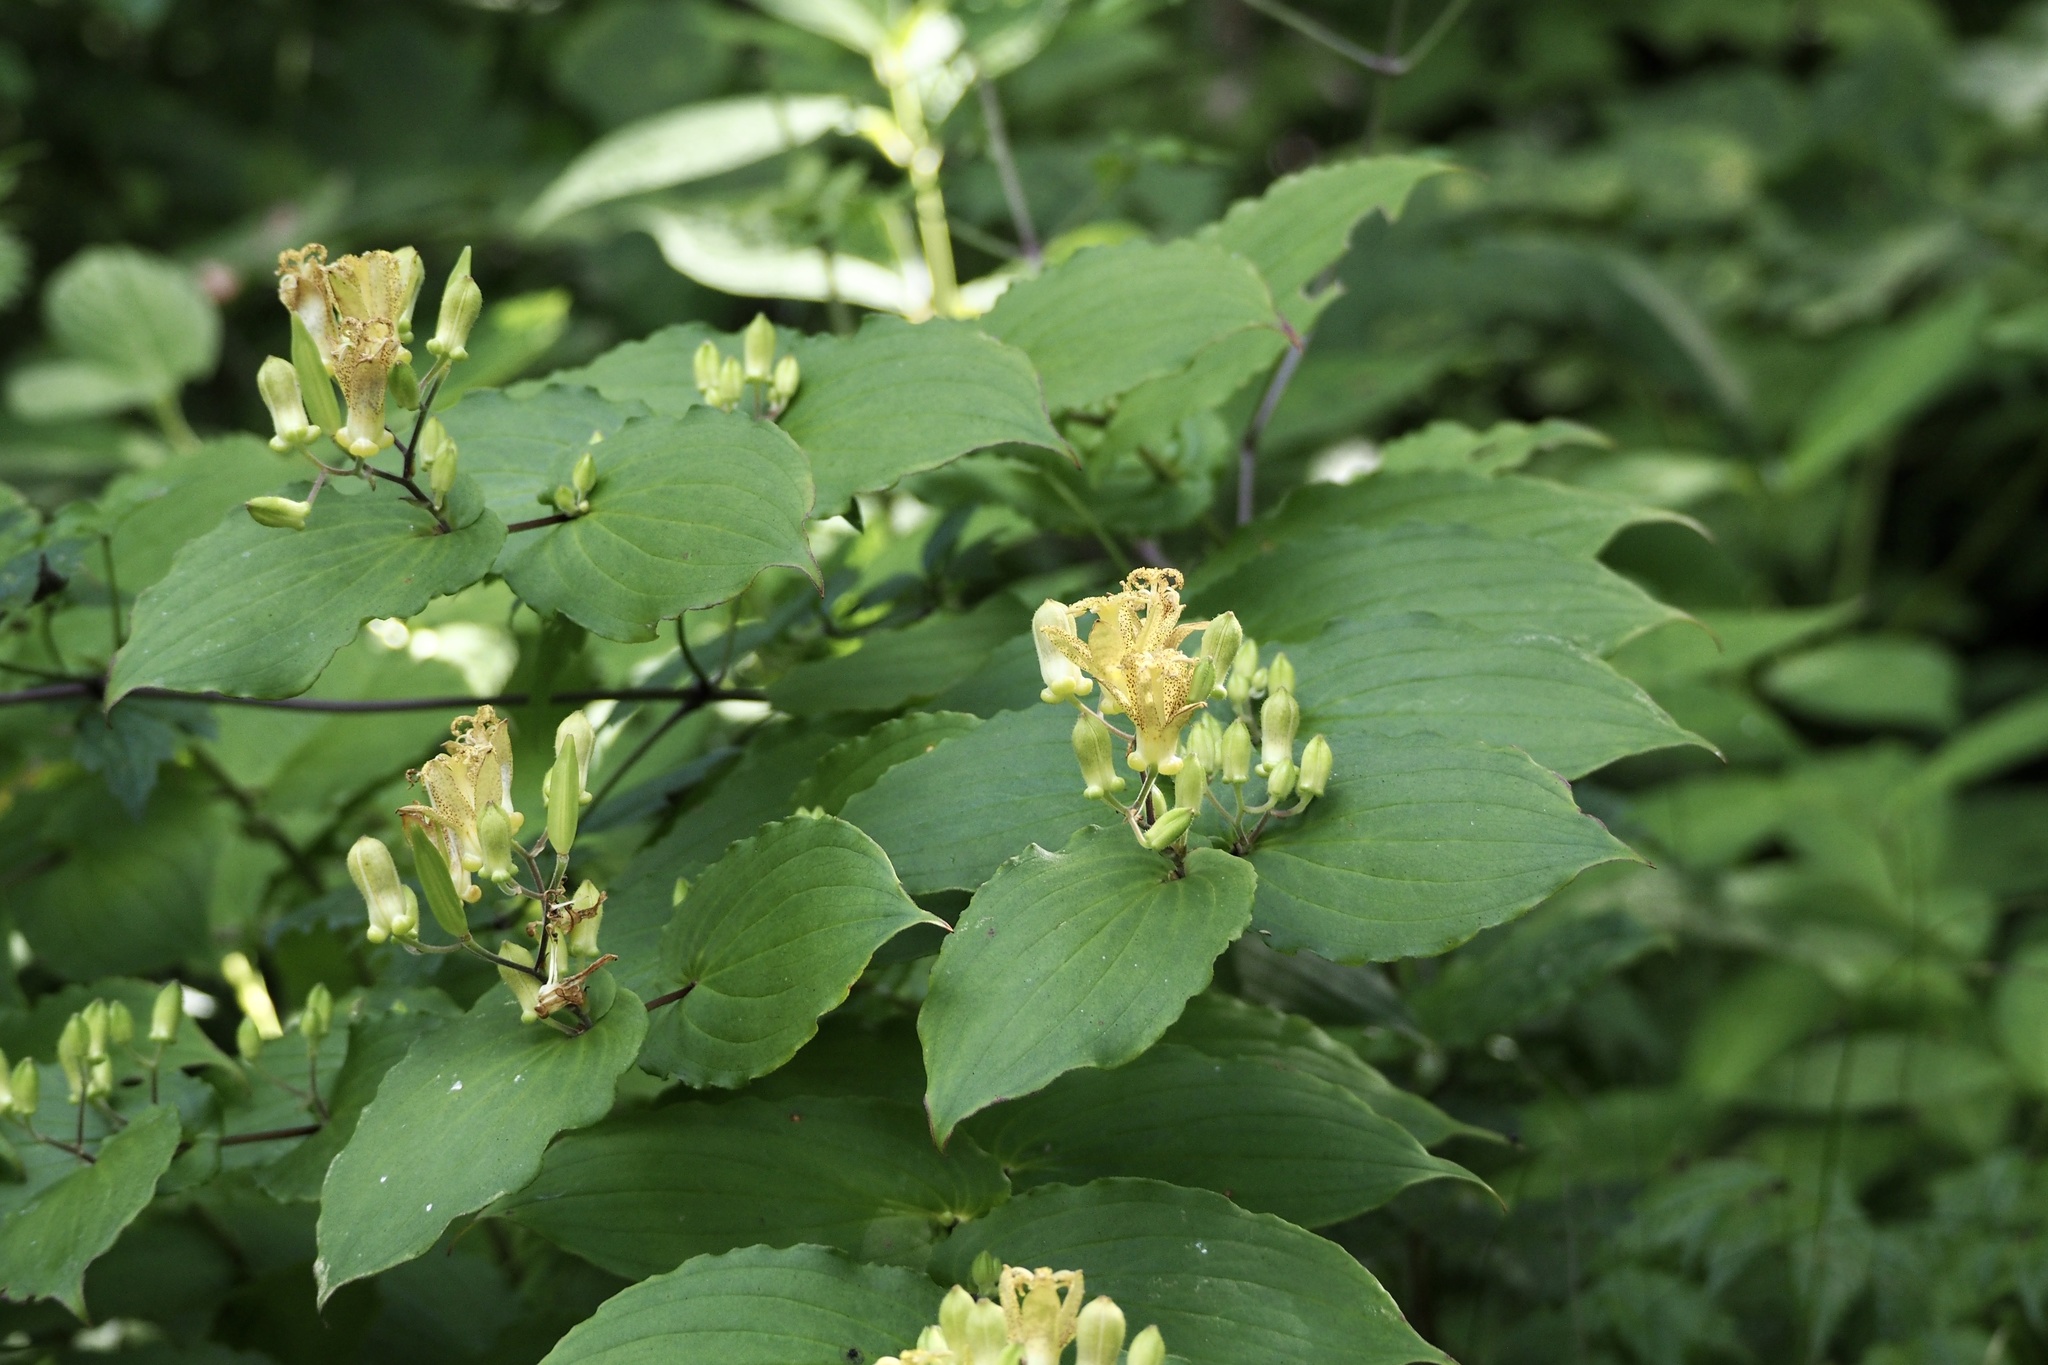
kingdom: Plantae
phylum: Tracheophyta
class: Liliopsida
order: Liliales
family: Liliaceae
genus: Tricyrtis
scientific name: Tricyrtis latifolia
